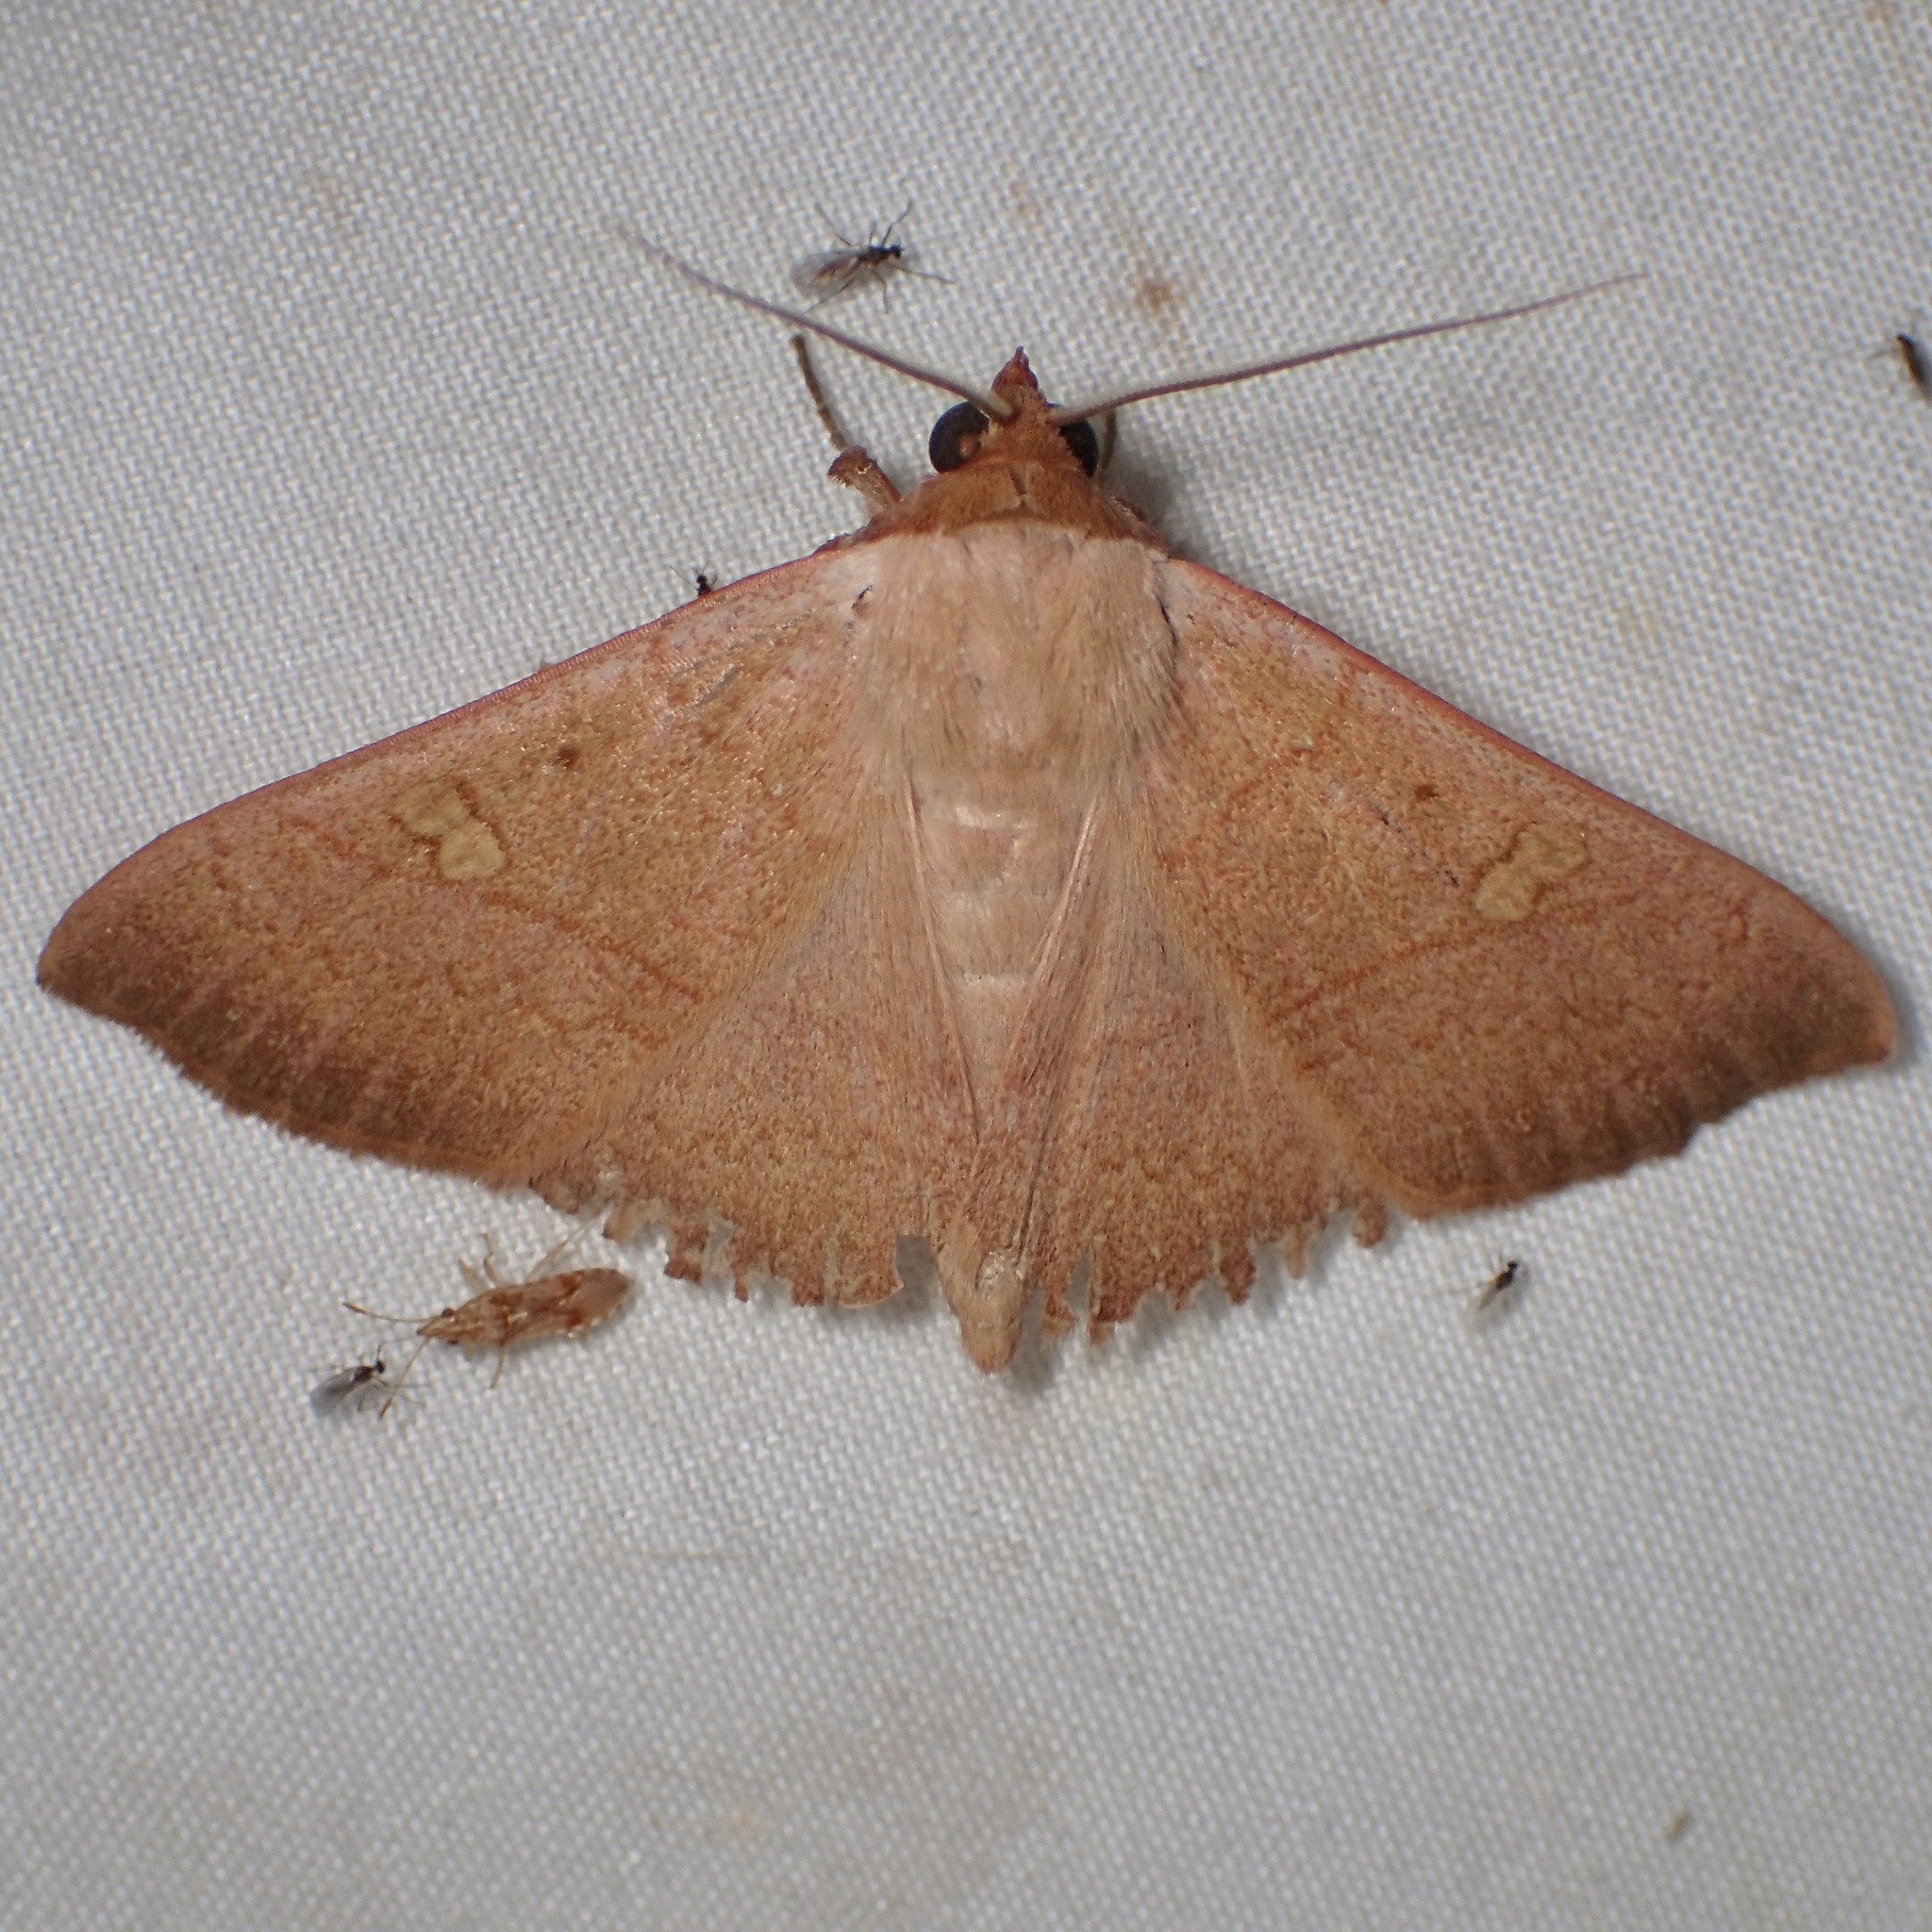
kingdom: Animalia
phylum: Arthropoda
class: Insecta
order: Lepidoptera
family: Erebidae
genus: Panopoda
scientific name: Panopoda rigida
